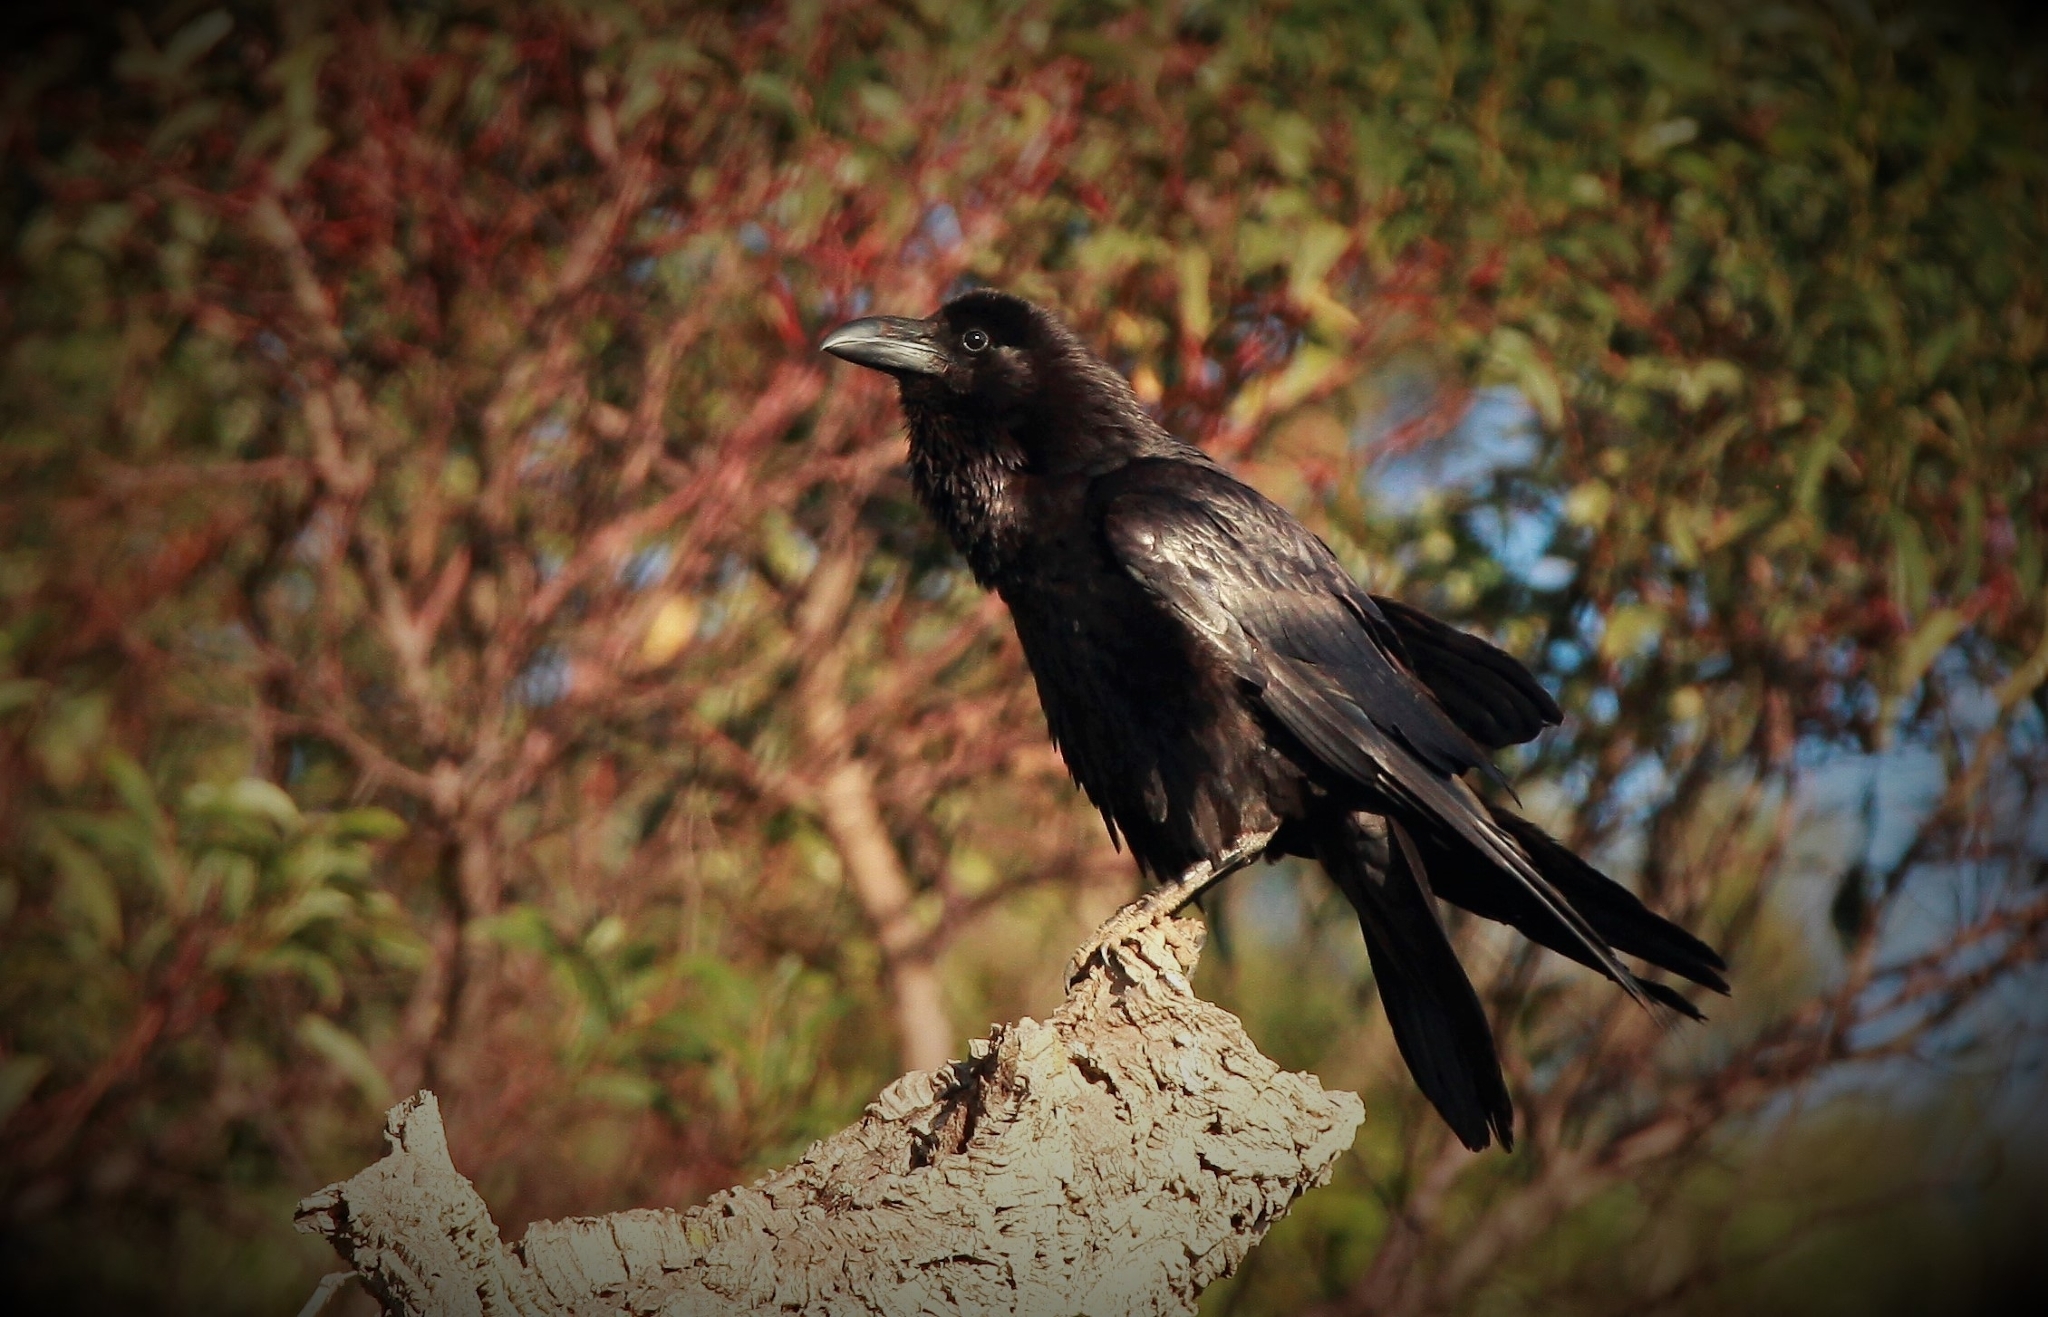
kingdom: Animalia
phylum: Chordata
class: Aves
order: Passeriformes
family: Corvidae
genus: Corvus
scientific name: Corvus corax
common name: Common raven
